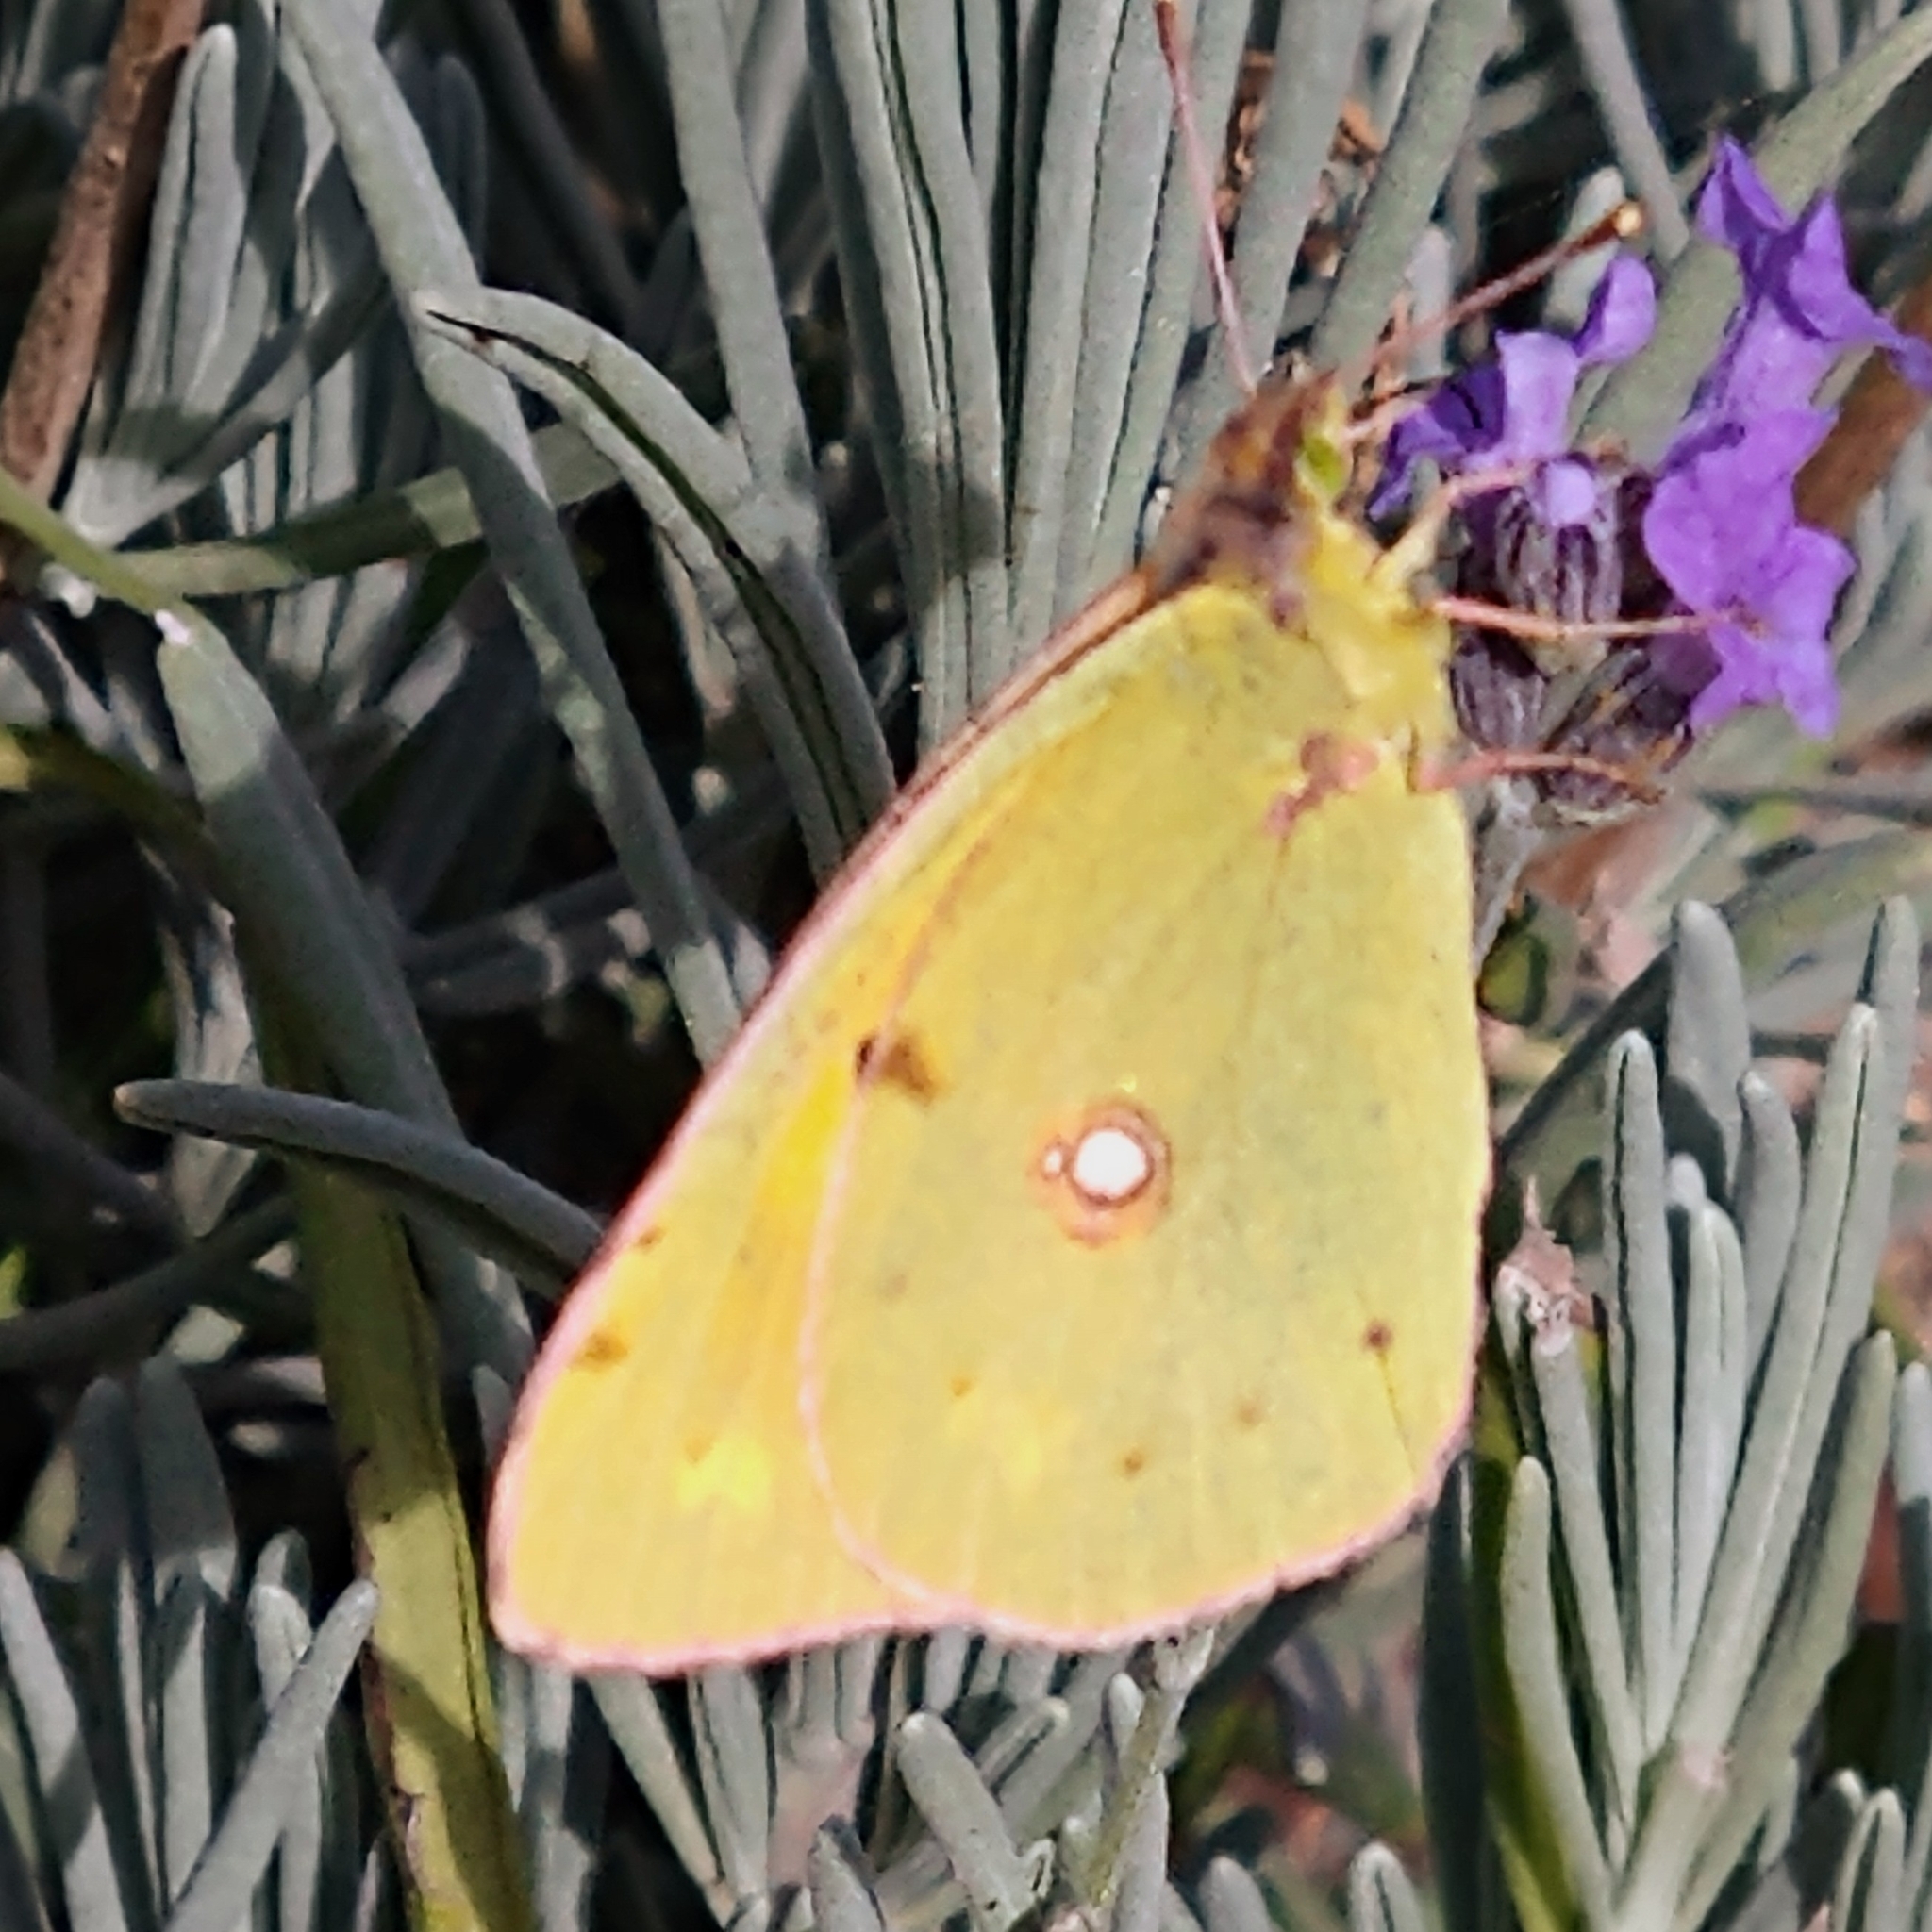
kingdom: Animalia
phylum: Arthropoda
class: Insecta
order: Lepidoptera
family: Pieridae
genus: Colias
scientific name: Colias croceus
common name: Clouded yellow
